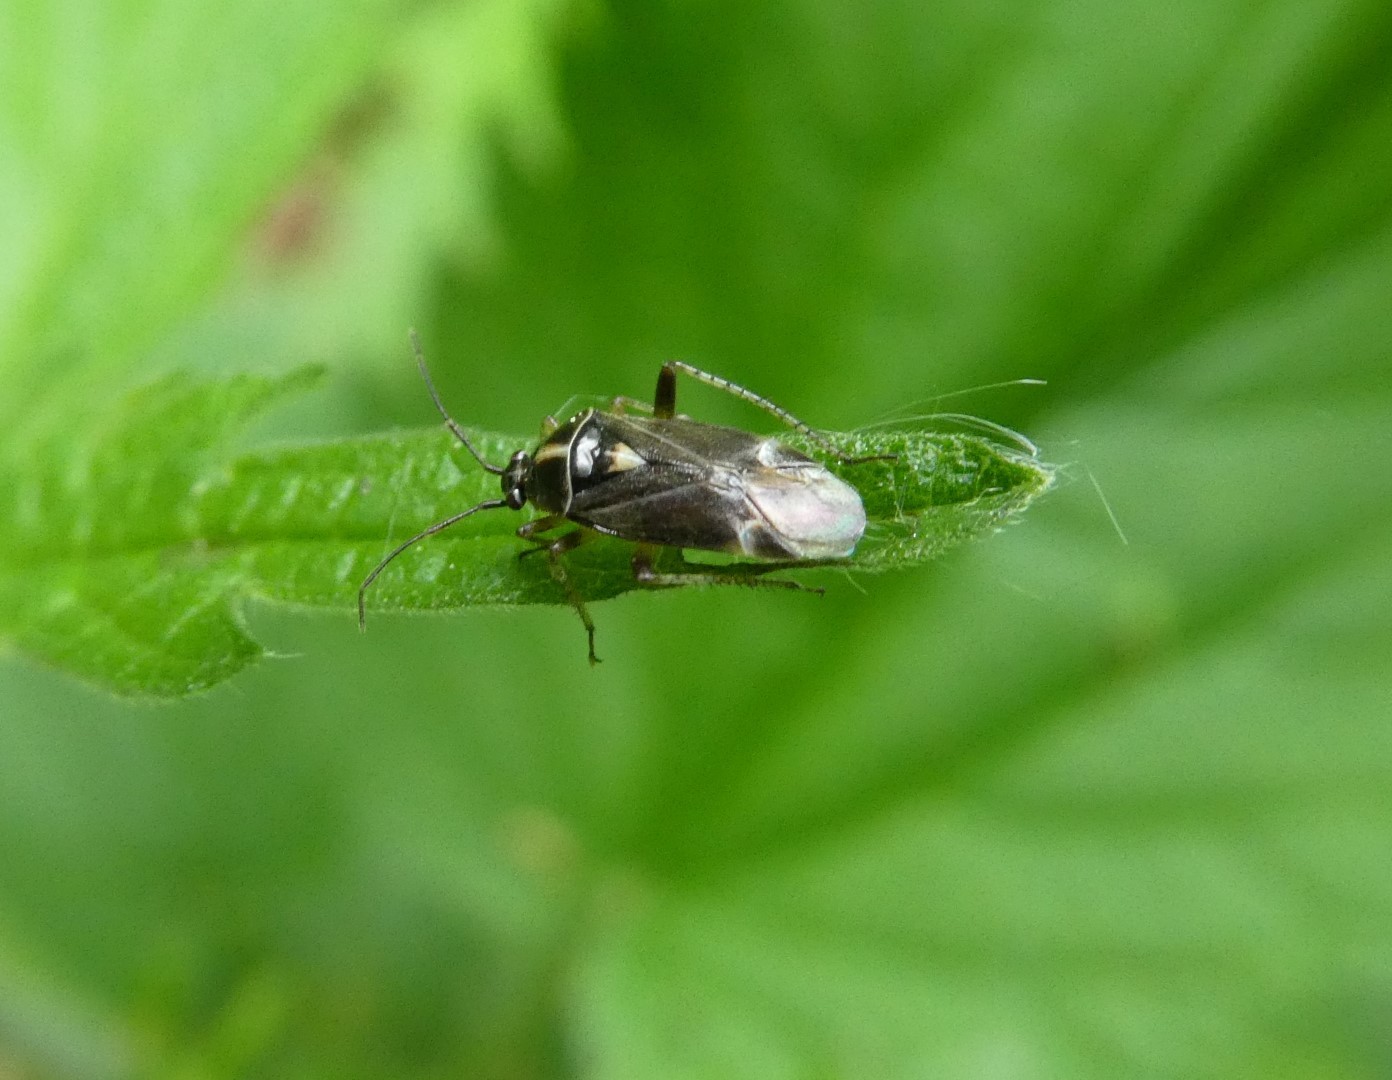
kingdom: Animalia
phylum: Arthropoda
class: Insecta
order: Hemiptera
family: Miridae
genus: Harpocera
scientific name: Harpocera thoracica
